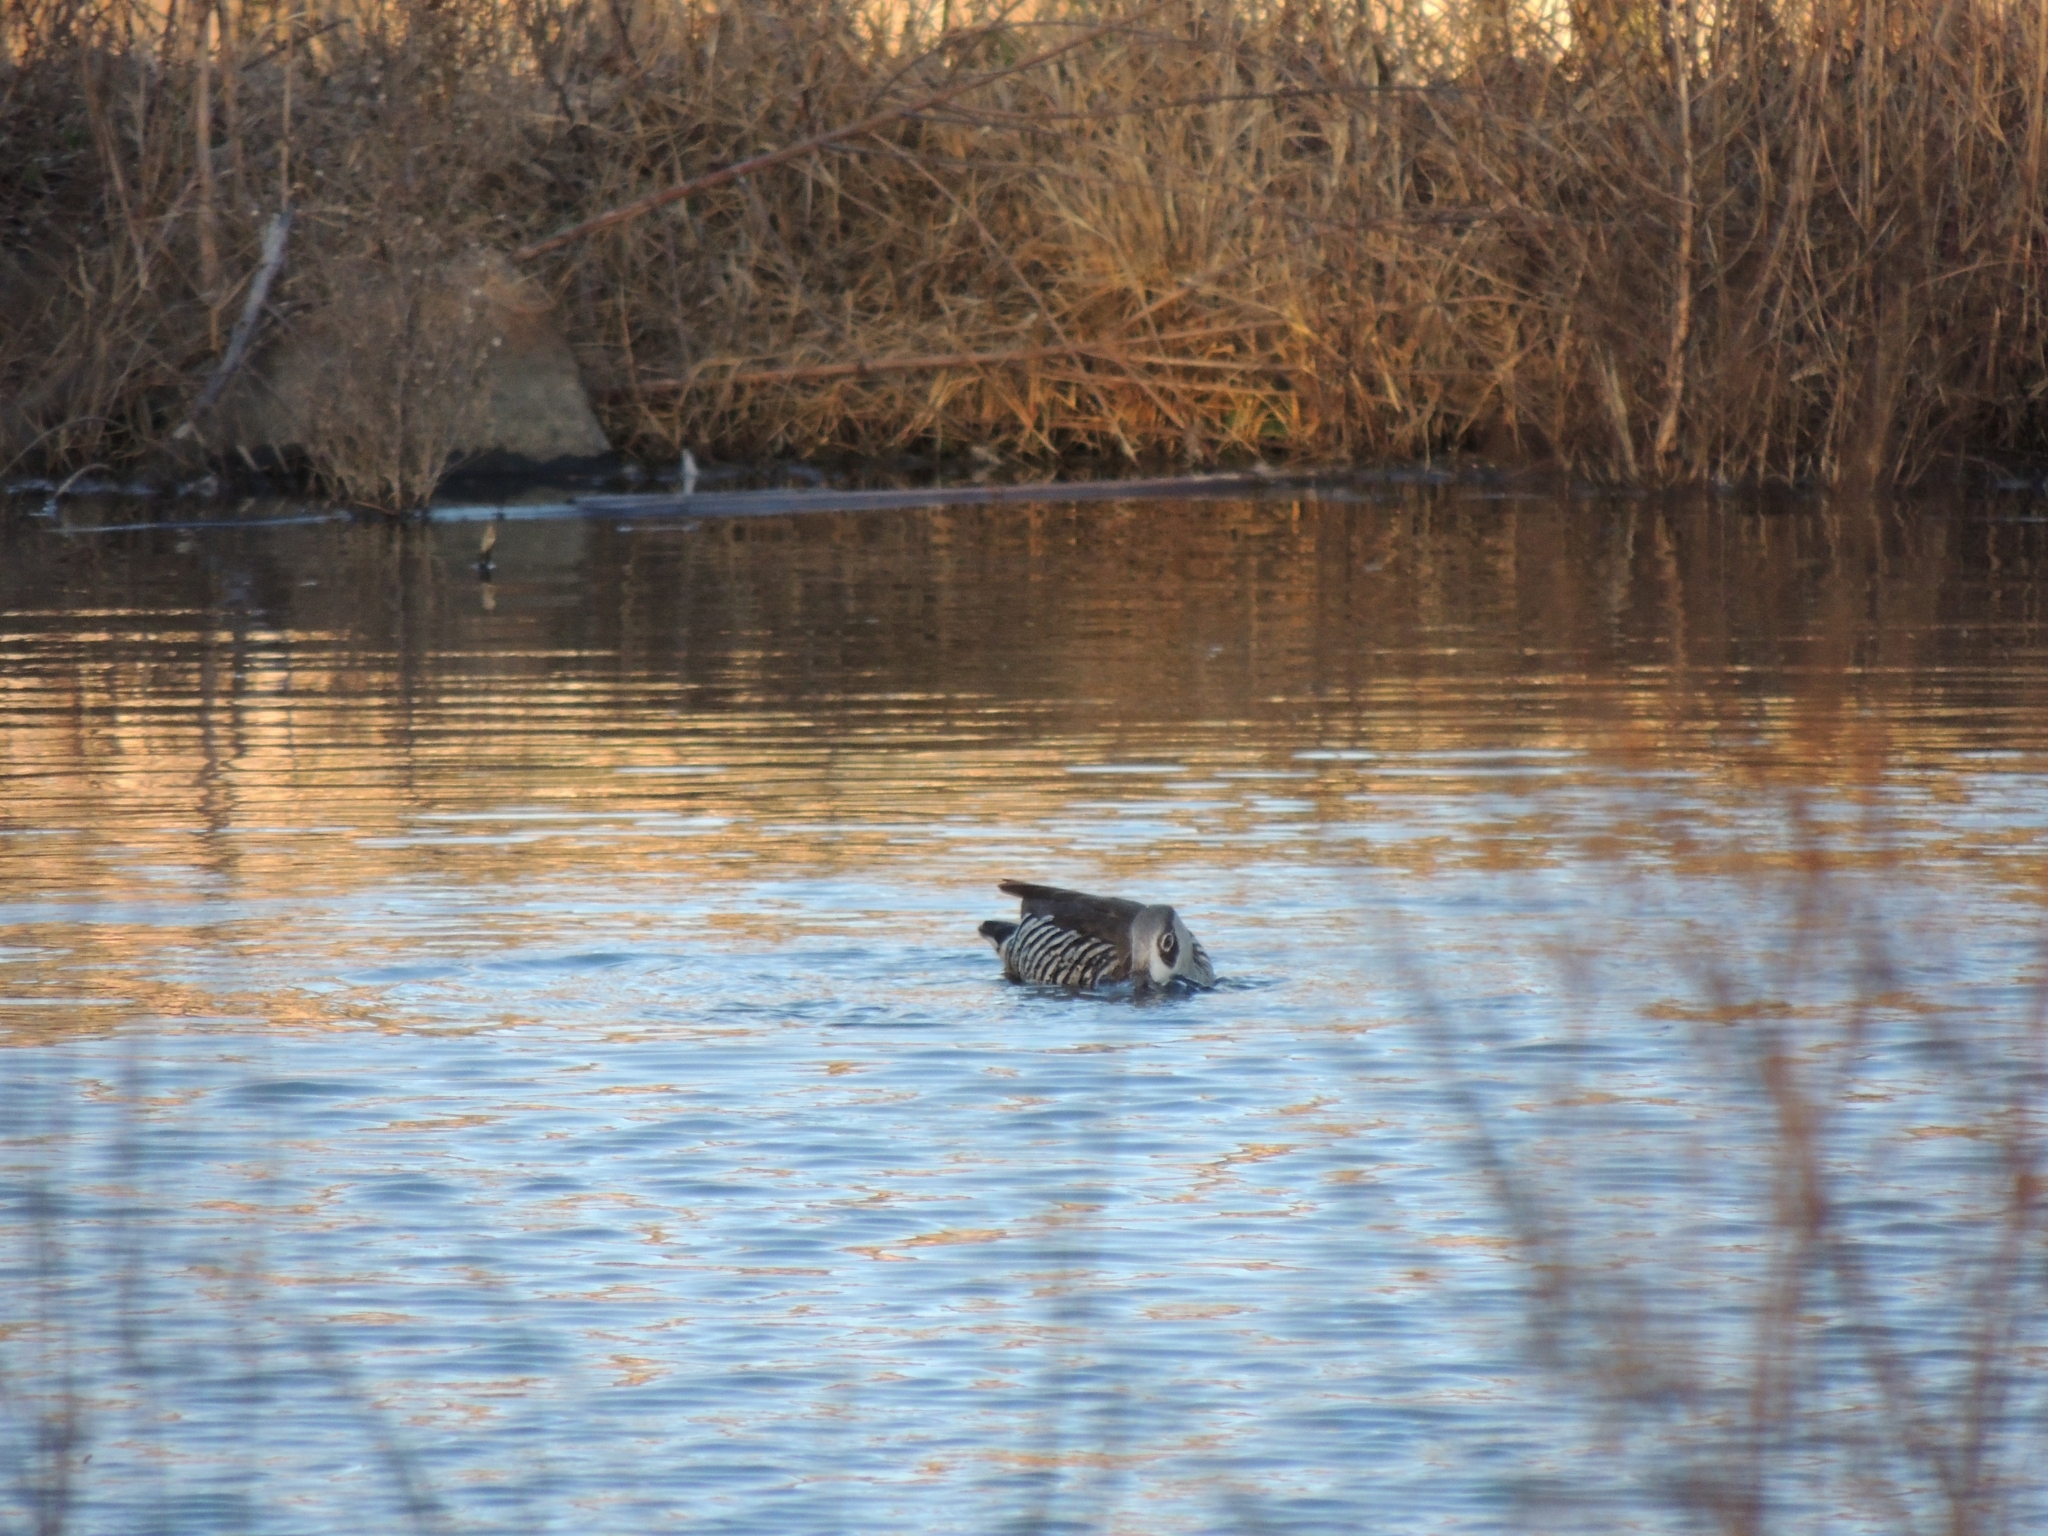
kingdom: Animalia
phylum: Chordata
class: Aves
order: Anseriformes
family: Anatidae
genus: Malacorhynchus
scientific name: Malacorhynchus membranaceus
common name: Pink-eared duck
